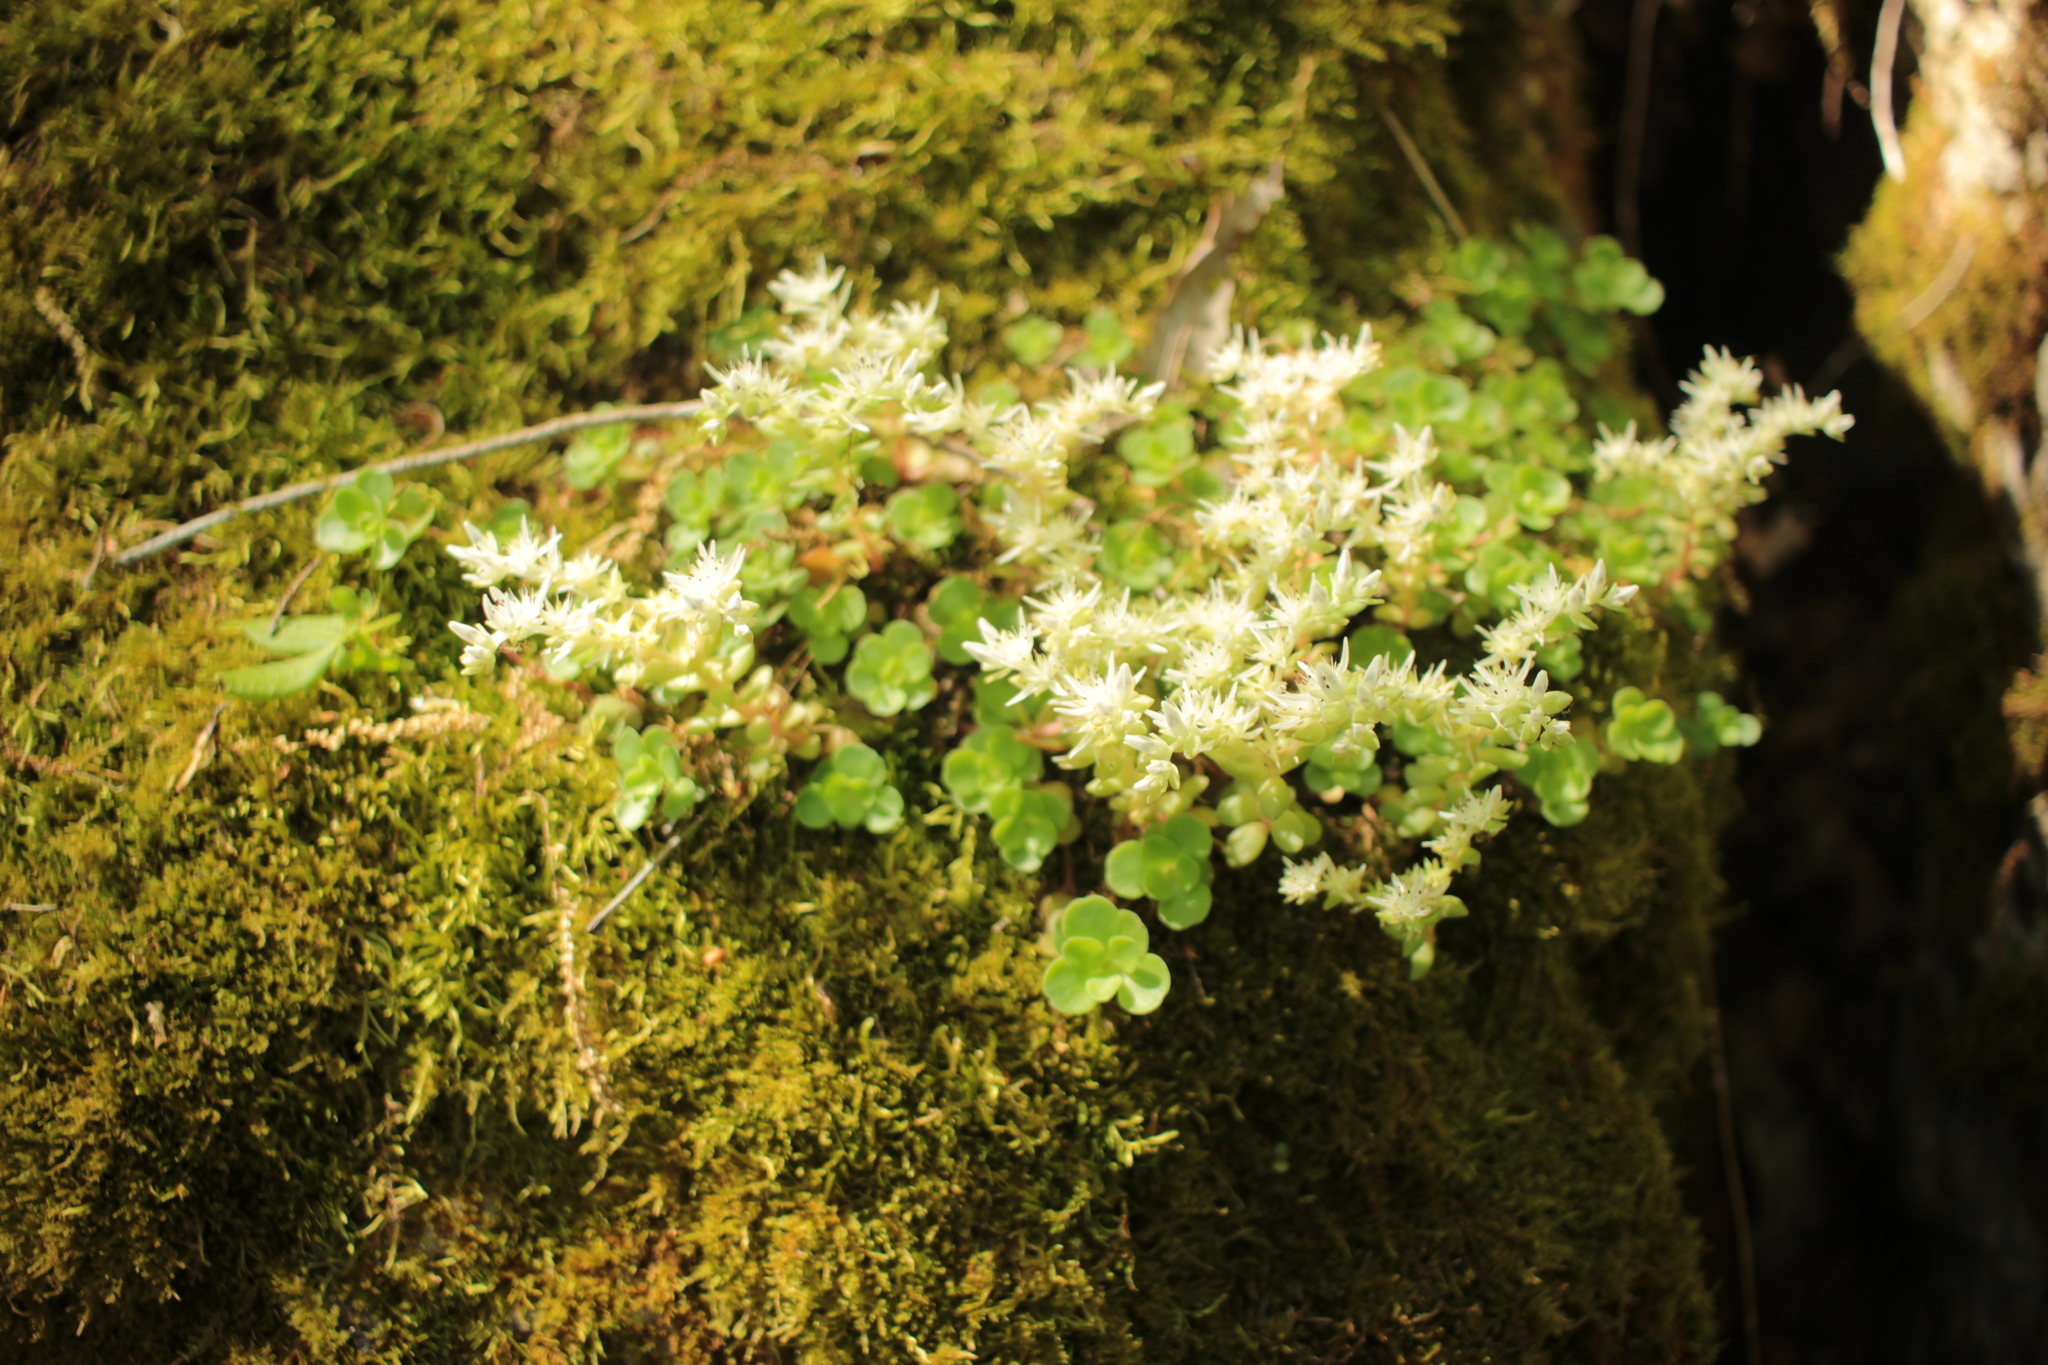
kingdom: Plantae
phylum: Tracheophyta
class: Magnoliopsida
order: Saxifragales
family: Crassulaceae
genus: Sedum
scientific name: Sedum ternatum
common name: Wild stonecrop
